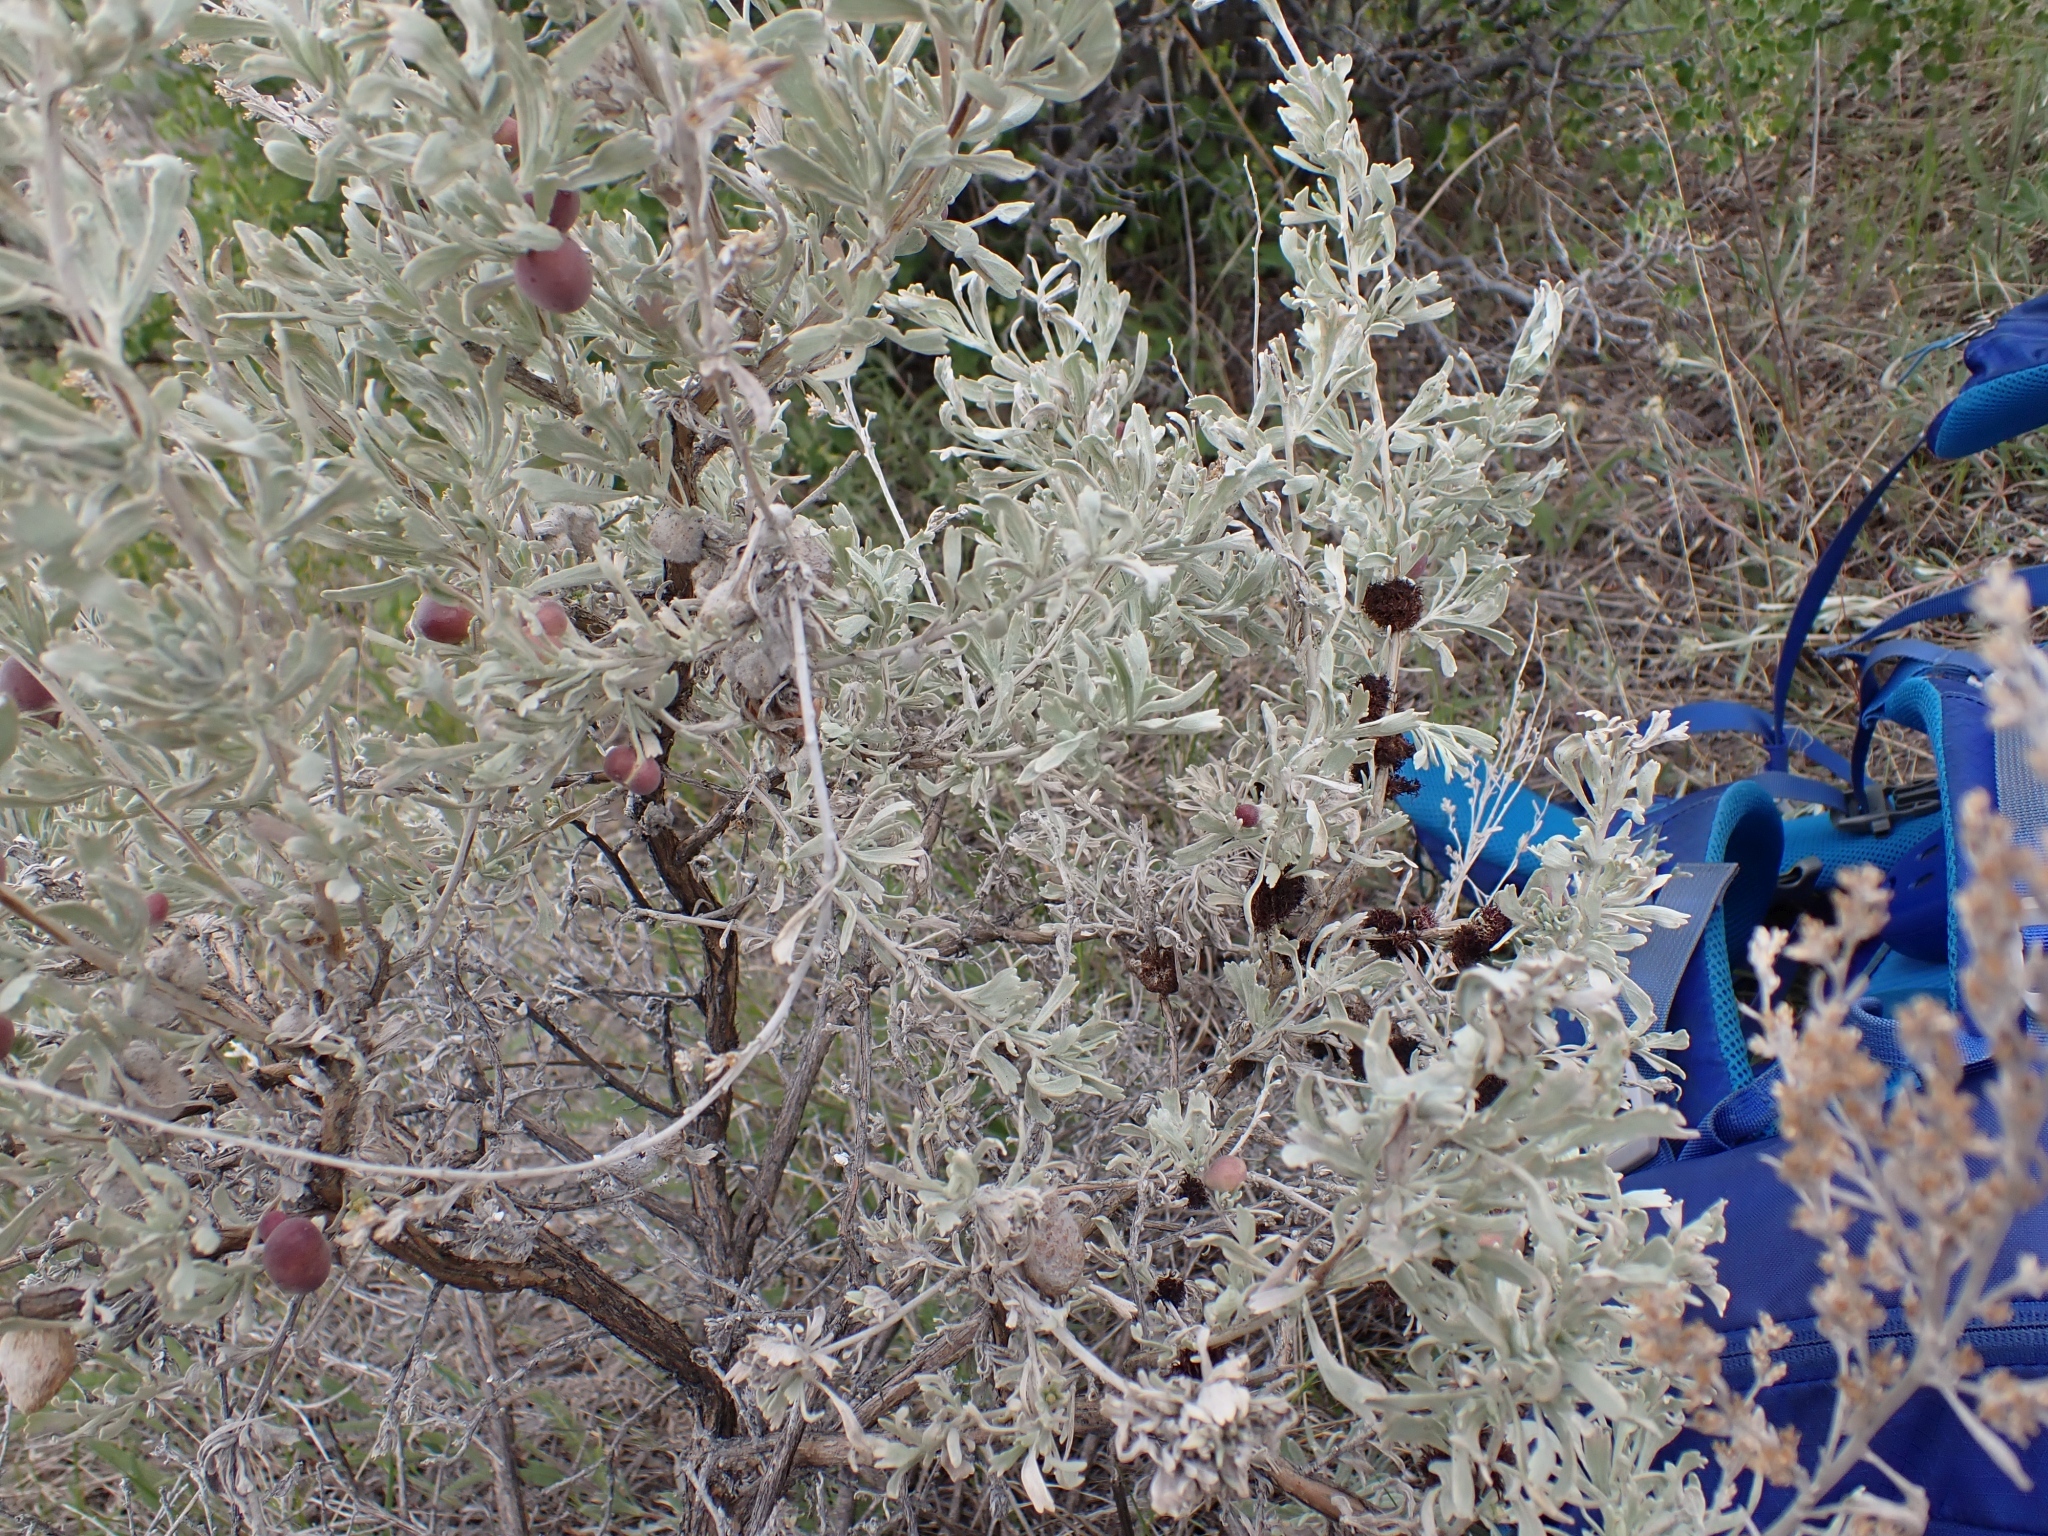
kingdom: Animalia
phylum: Arthropoda
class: Insecta
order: Diptera
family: Cecidomyiidae
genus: Rhopalomyia
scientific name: Rhopalomyia medusa
